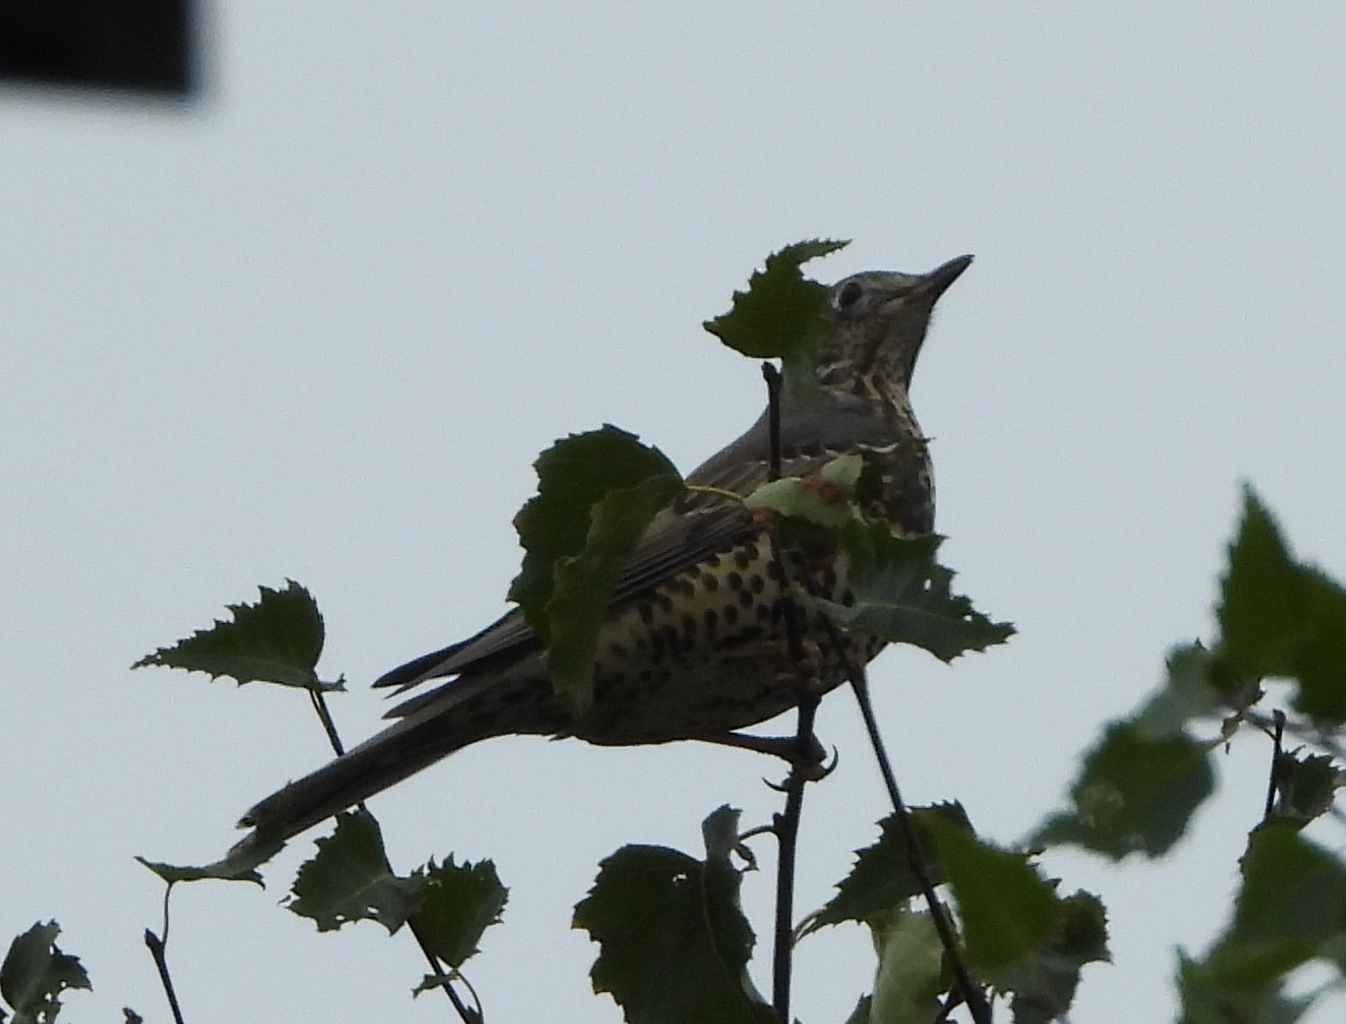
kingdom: Animalia
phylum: Chordata
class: Aves
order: Passeriformes
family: Turdidae
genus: Turdus
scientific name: Turdus viscivorus
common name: Mistle thrush
